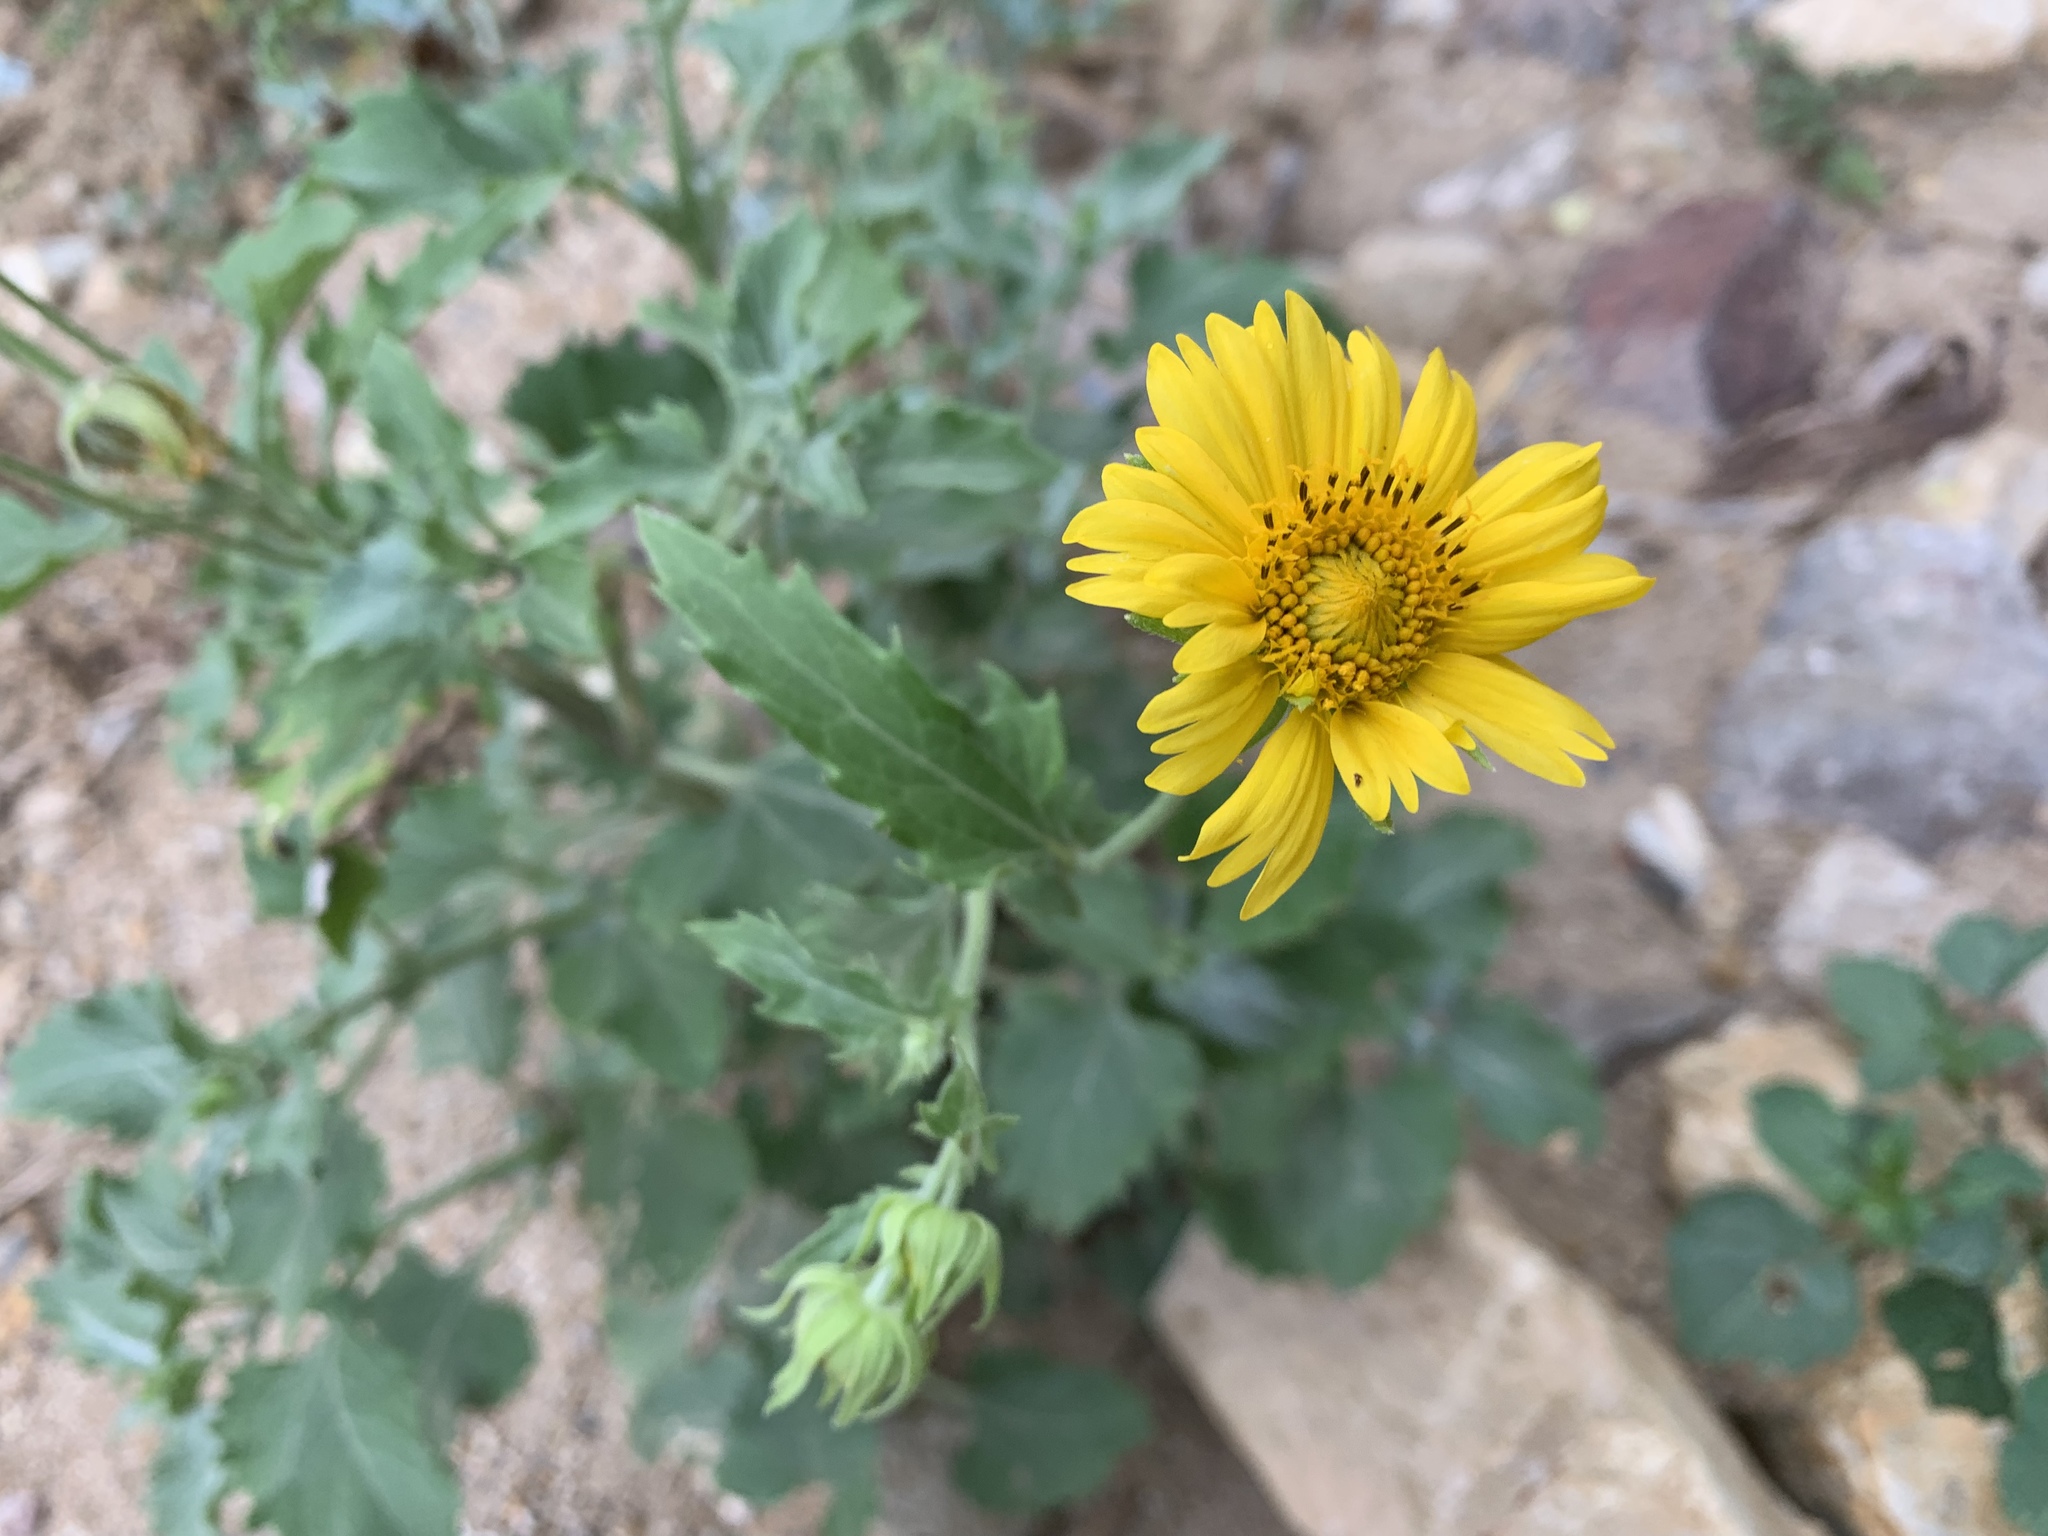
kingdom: Plantae
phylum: Tracheophyta
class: Magnoliopsida
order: Asterales
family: Asteraceae
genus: Verbesina
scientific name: Verbesina encelioides
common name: Golden crownbeard
